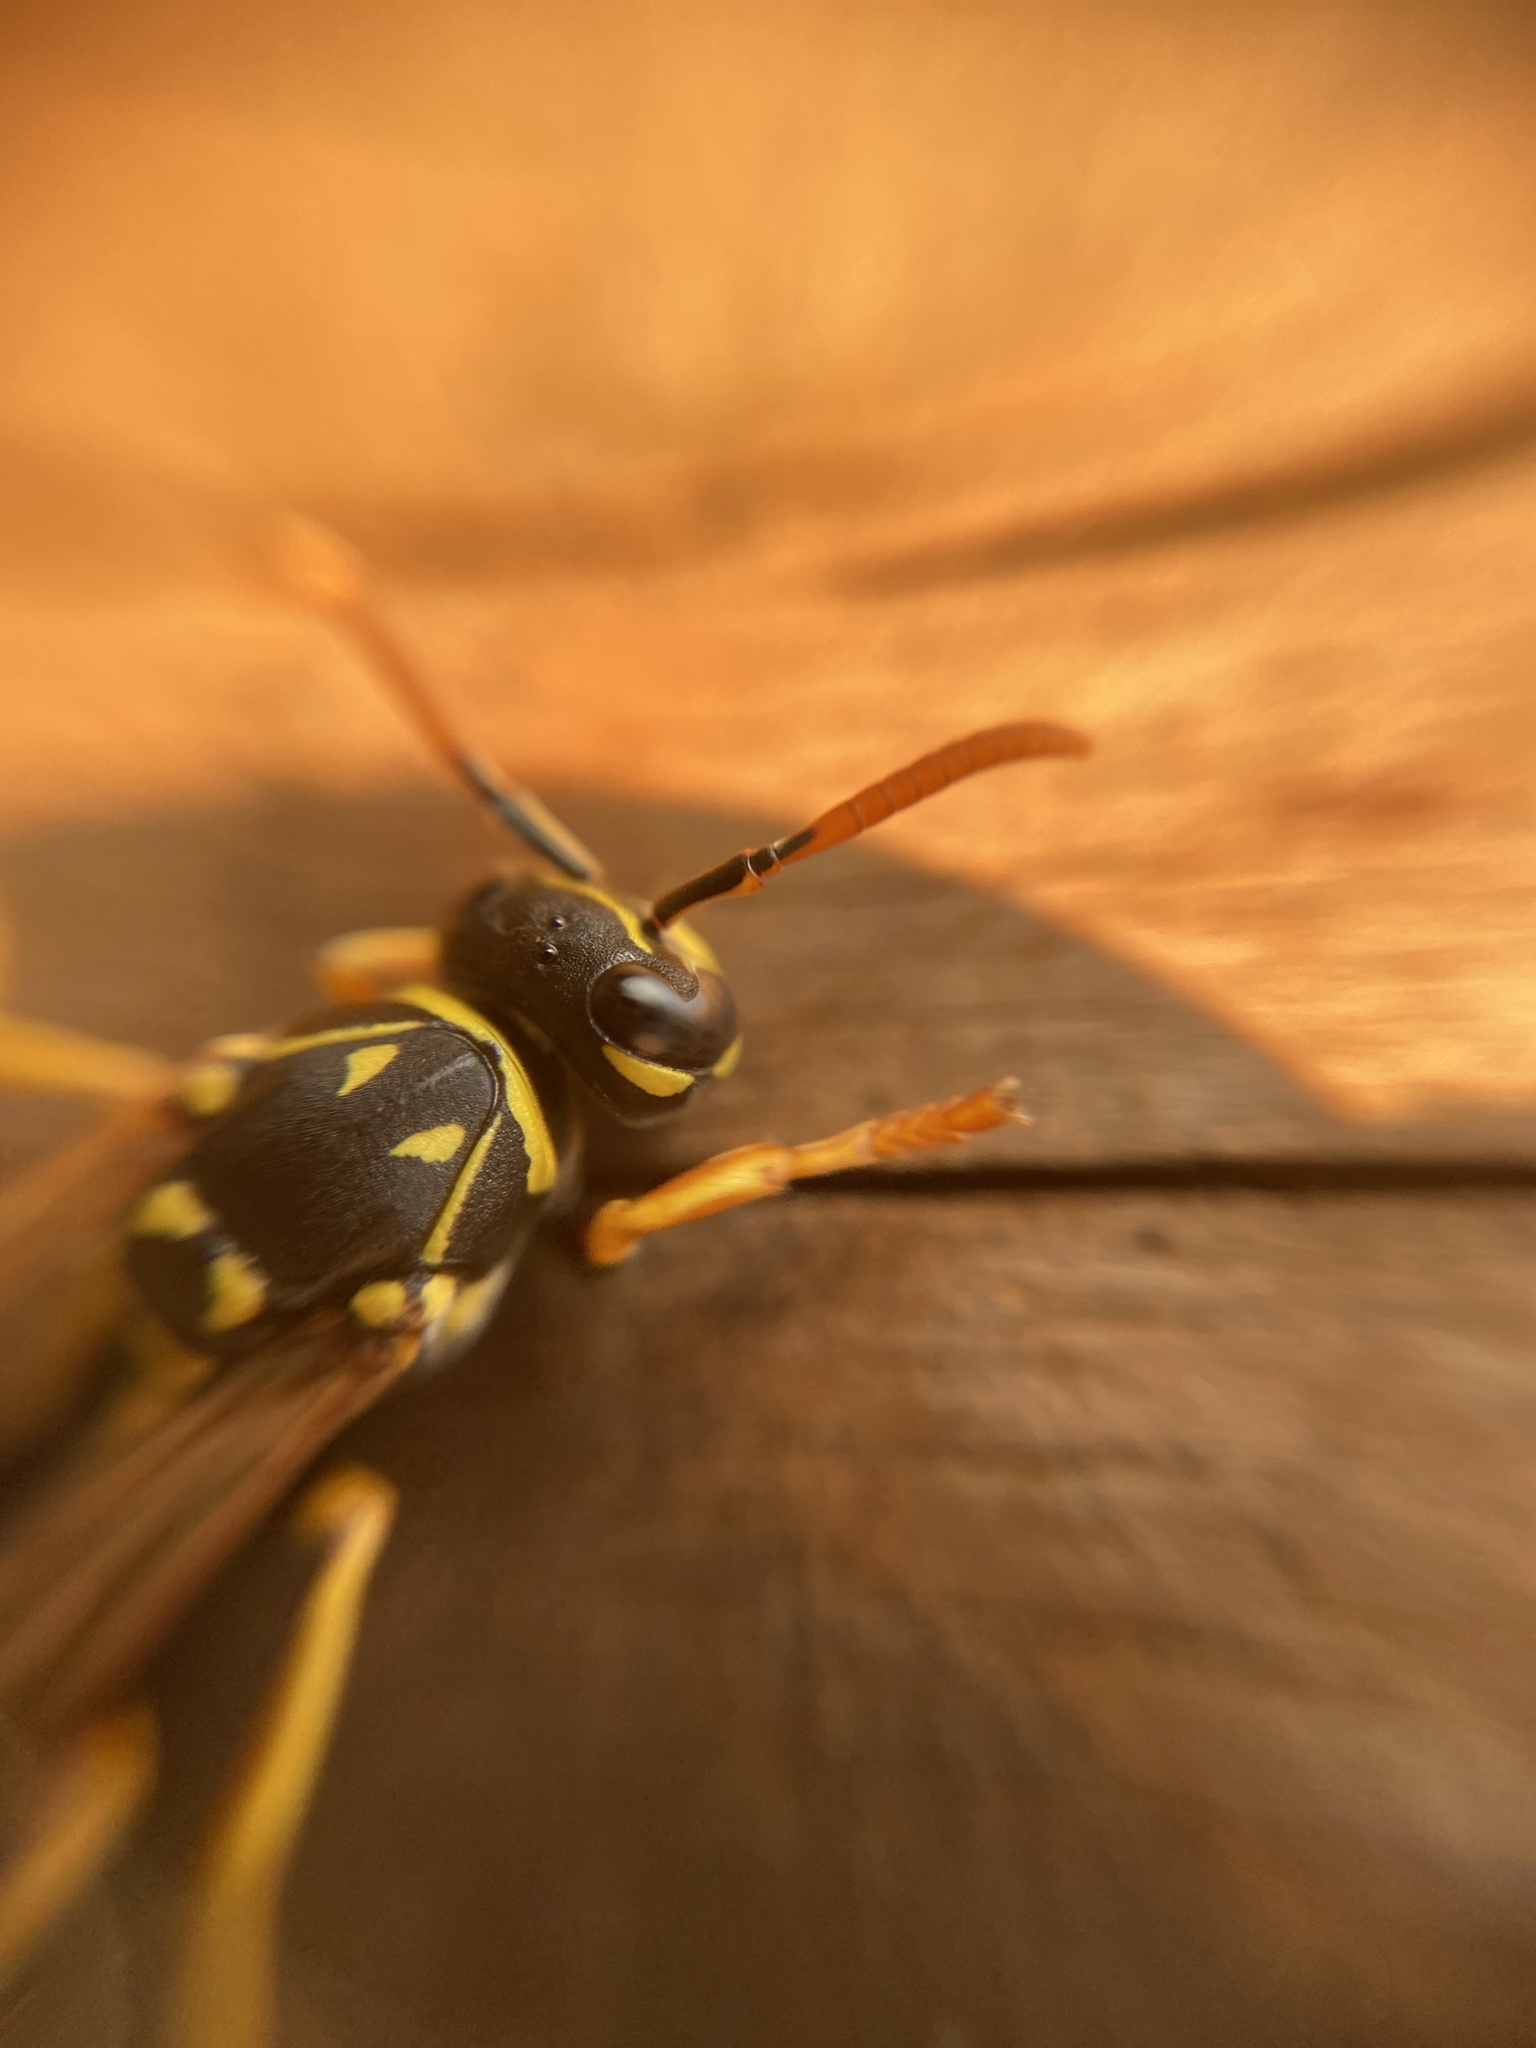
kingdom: Animalia
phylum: Arthropoda
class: Insecta
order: Hymenoptera
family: Eumenidae
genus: Polistes
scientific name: Polistes dominula
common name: Paper wasp
